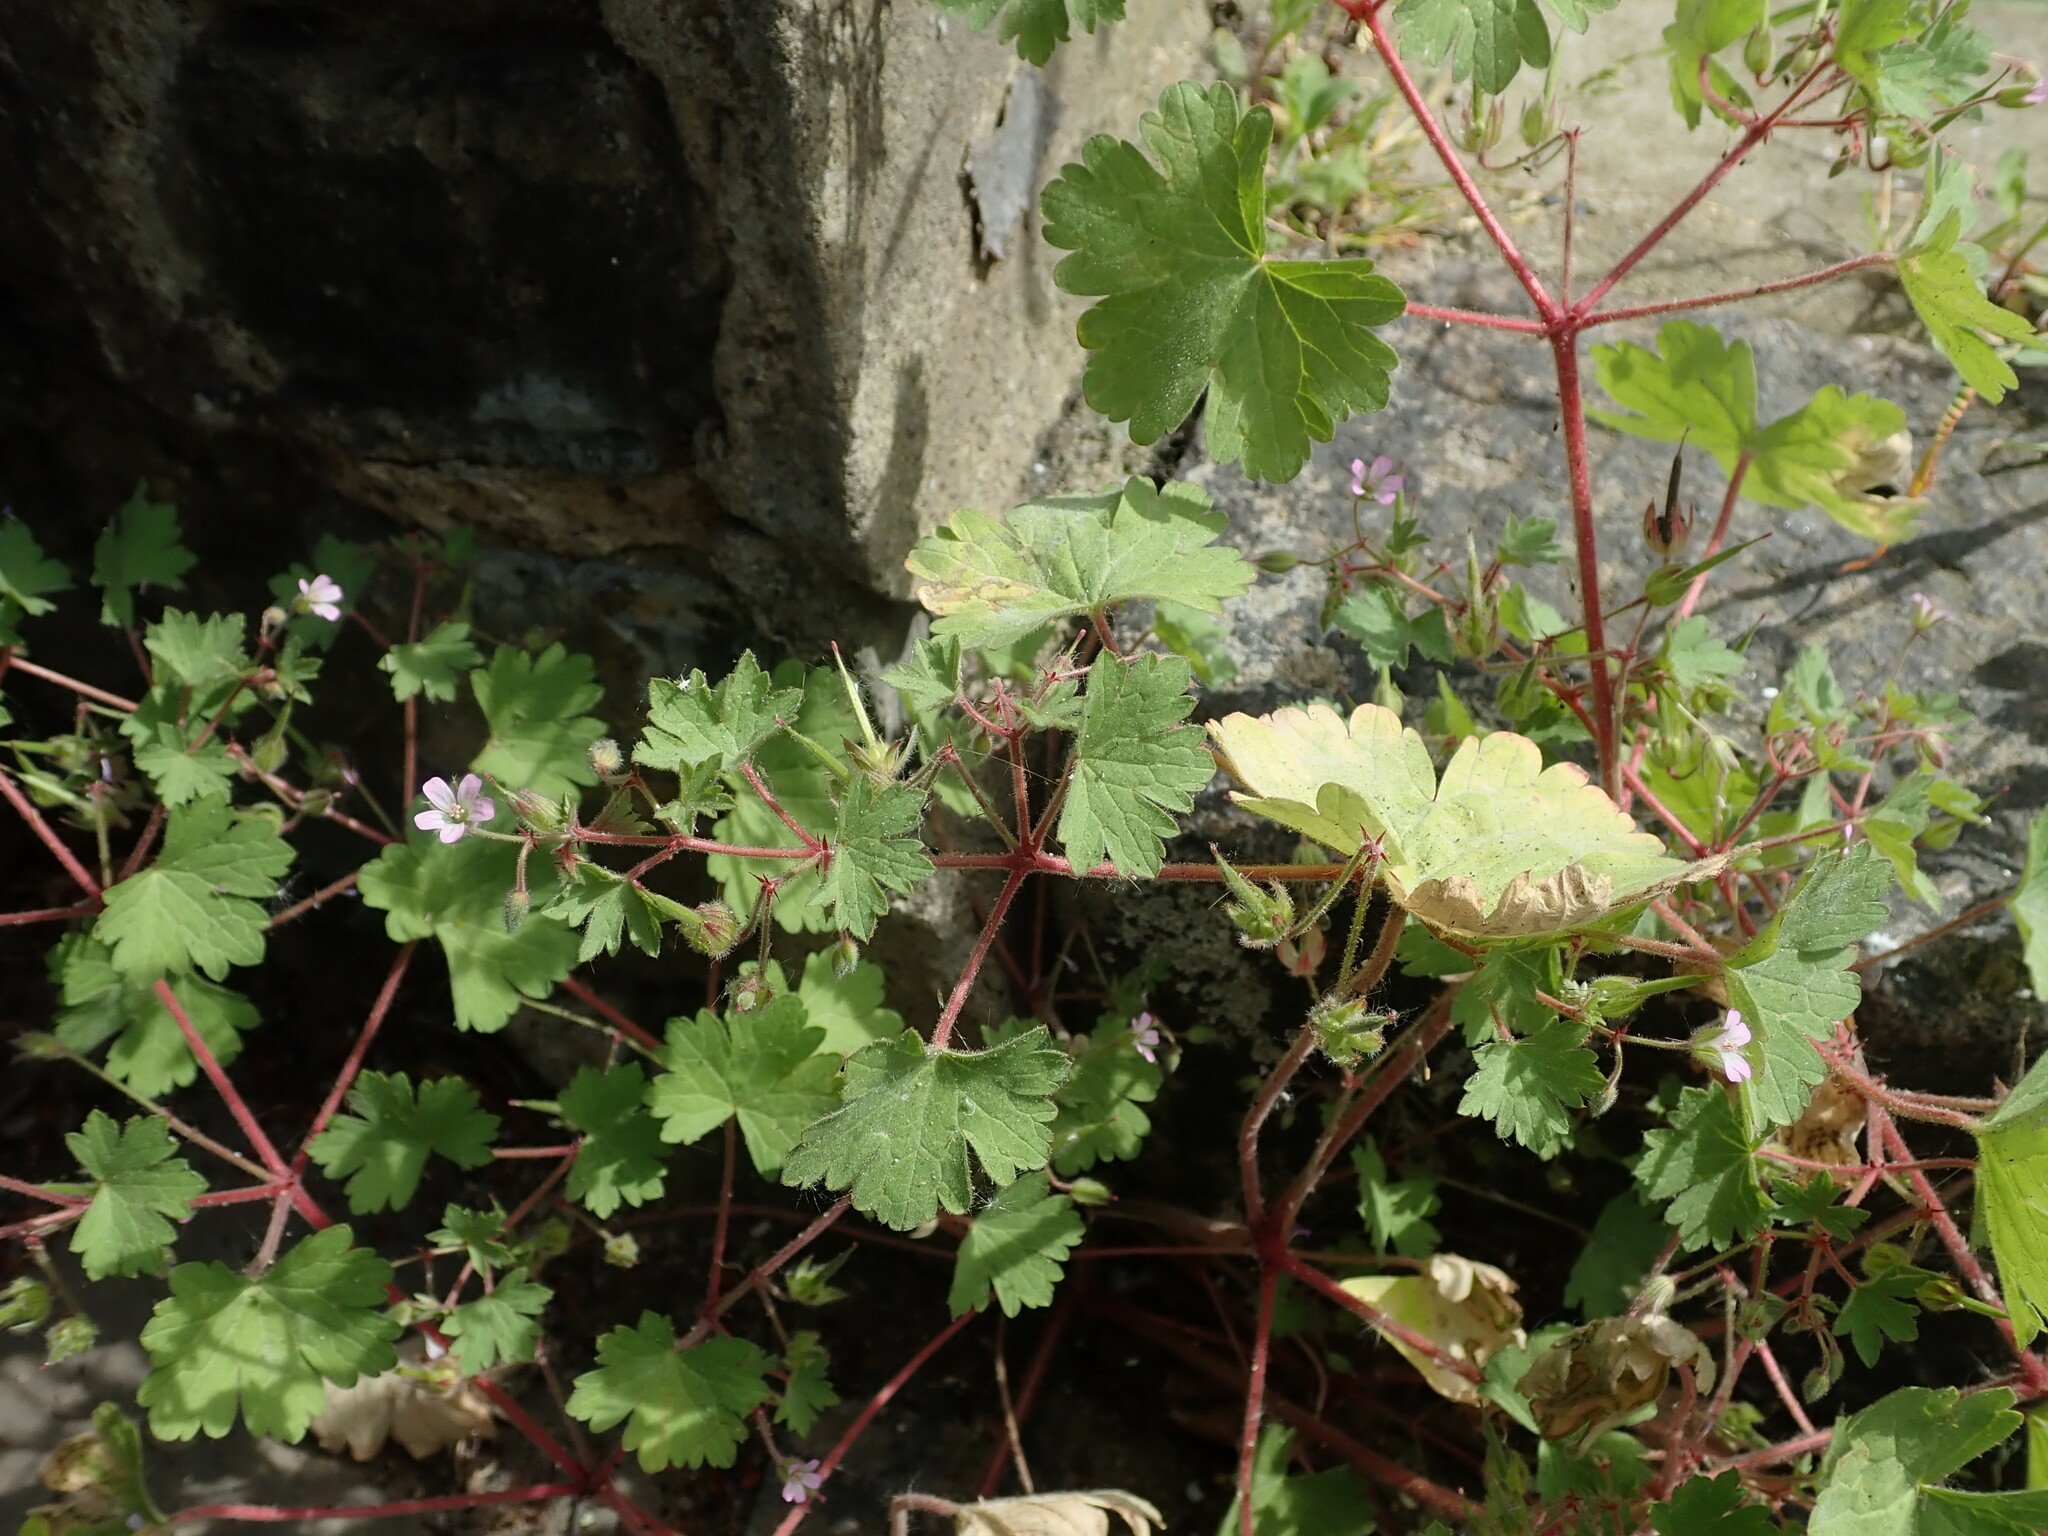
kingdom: Plantae
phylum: Tracheophyta
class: Magnoliopsida
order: Geraniales
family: Geraniaceae
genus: Geranium
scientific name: Geranium rotundifolium
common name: Round-leaved crane's-bill
